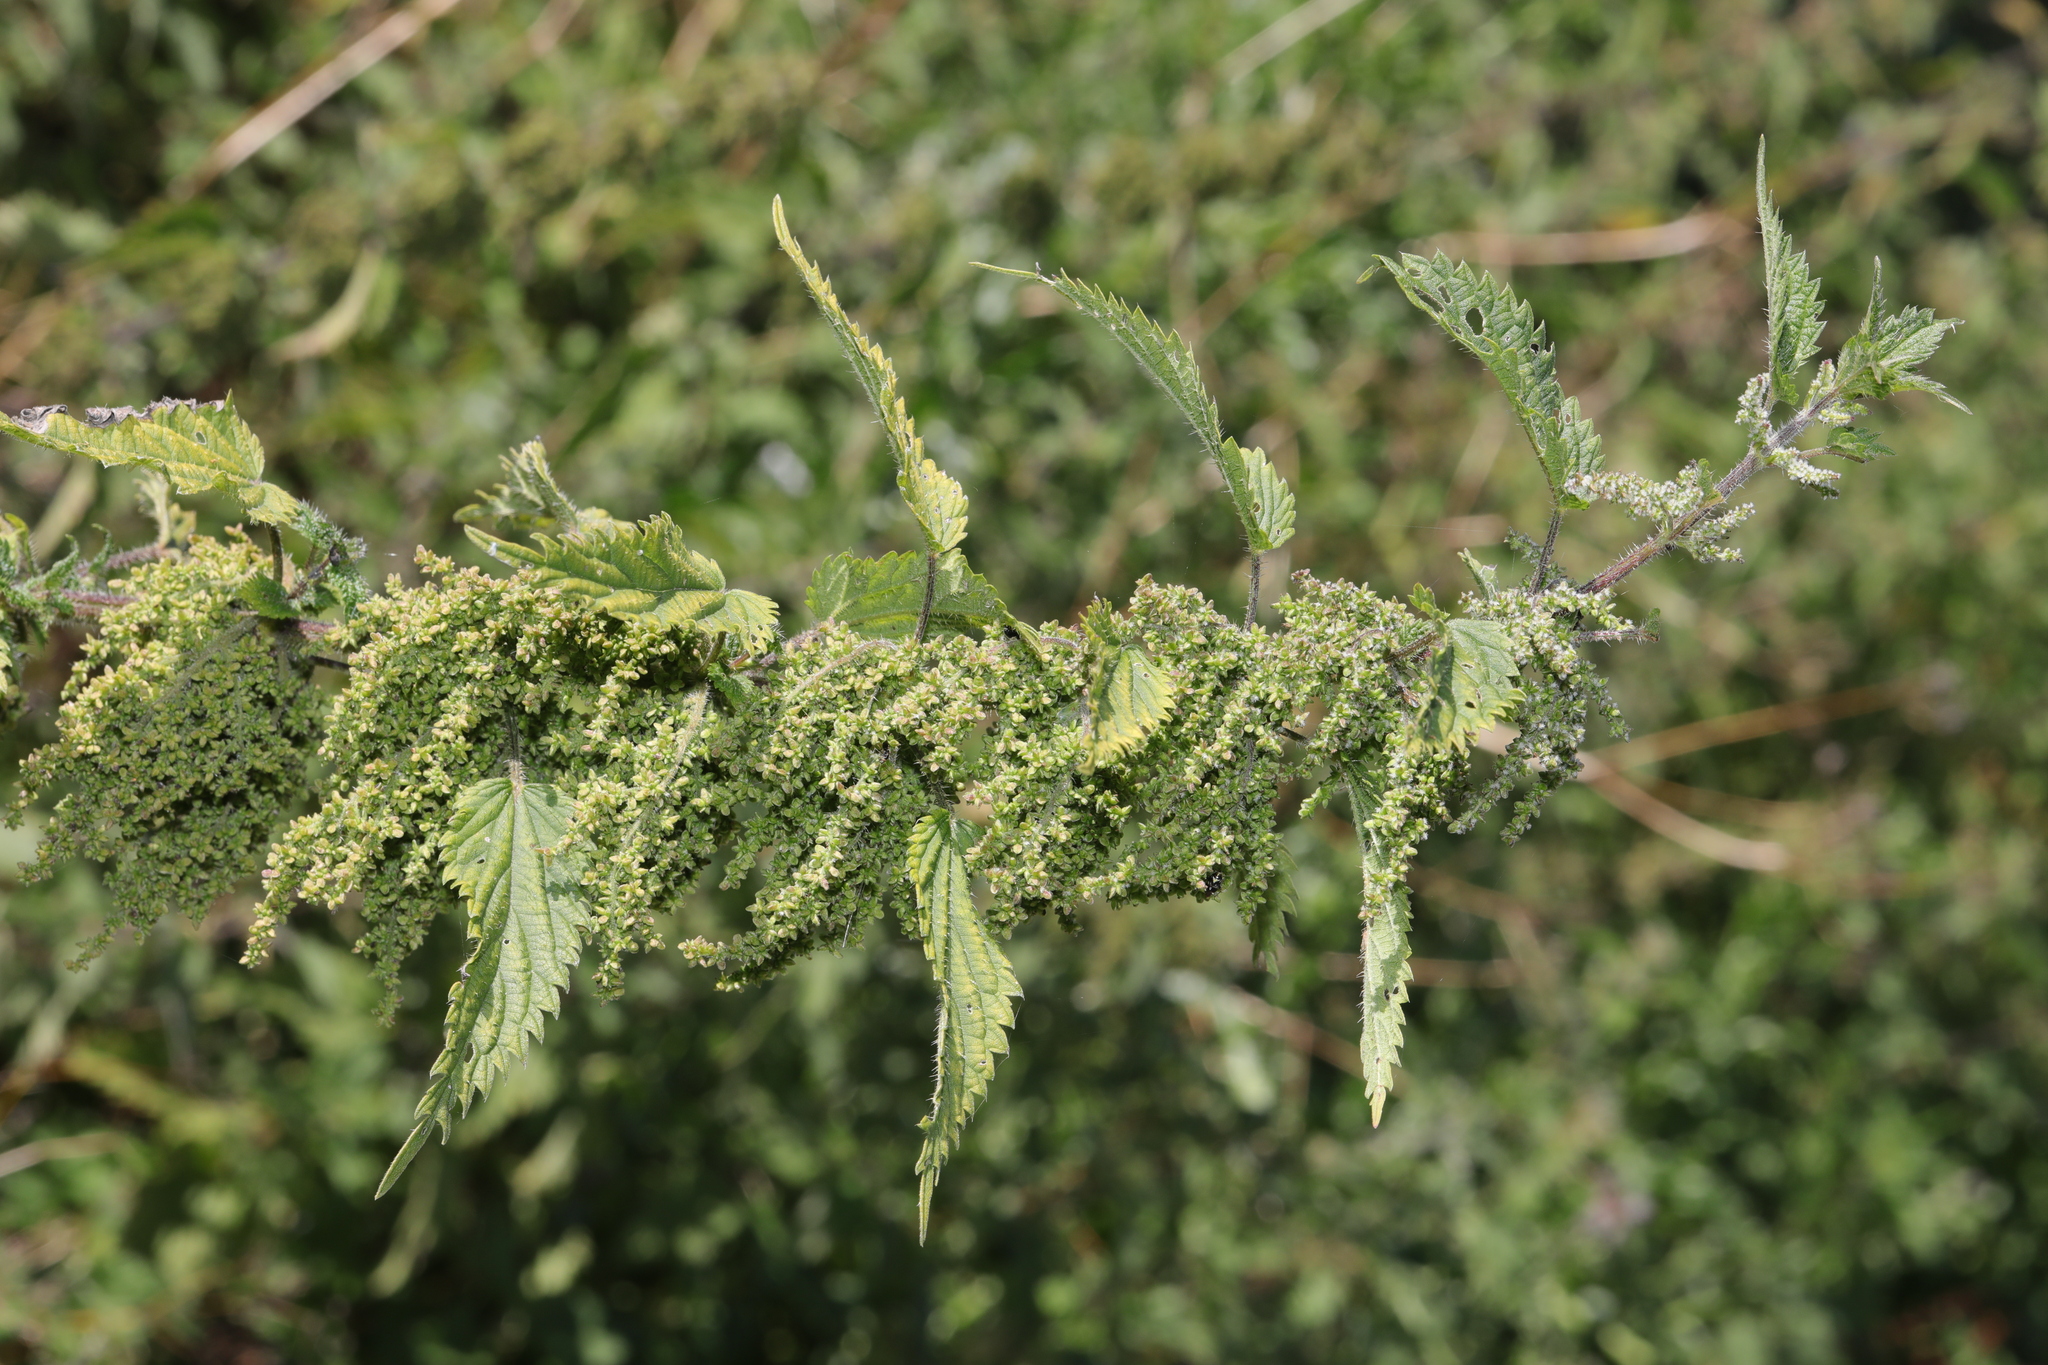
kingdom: Plantae
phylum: Tracheophyta
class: Magnoliopsida
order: Rosales
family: Urticaceae
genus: Urtica
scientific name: Urtica dioica
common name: Common nettle
